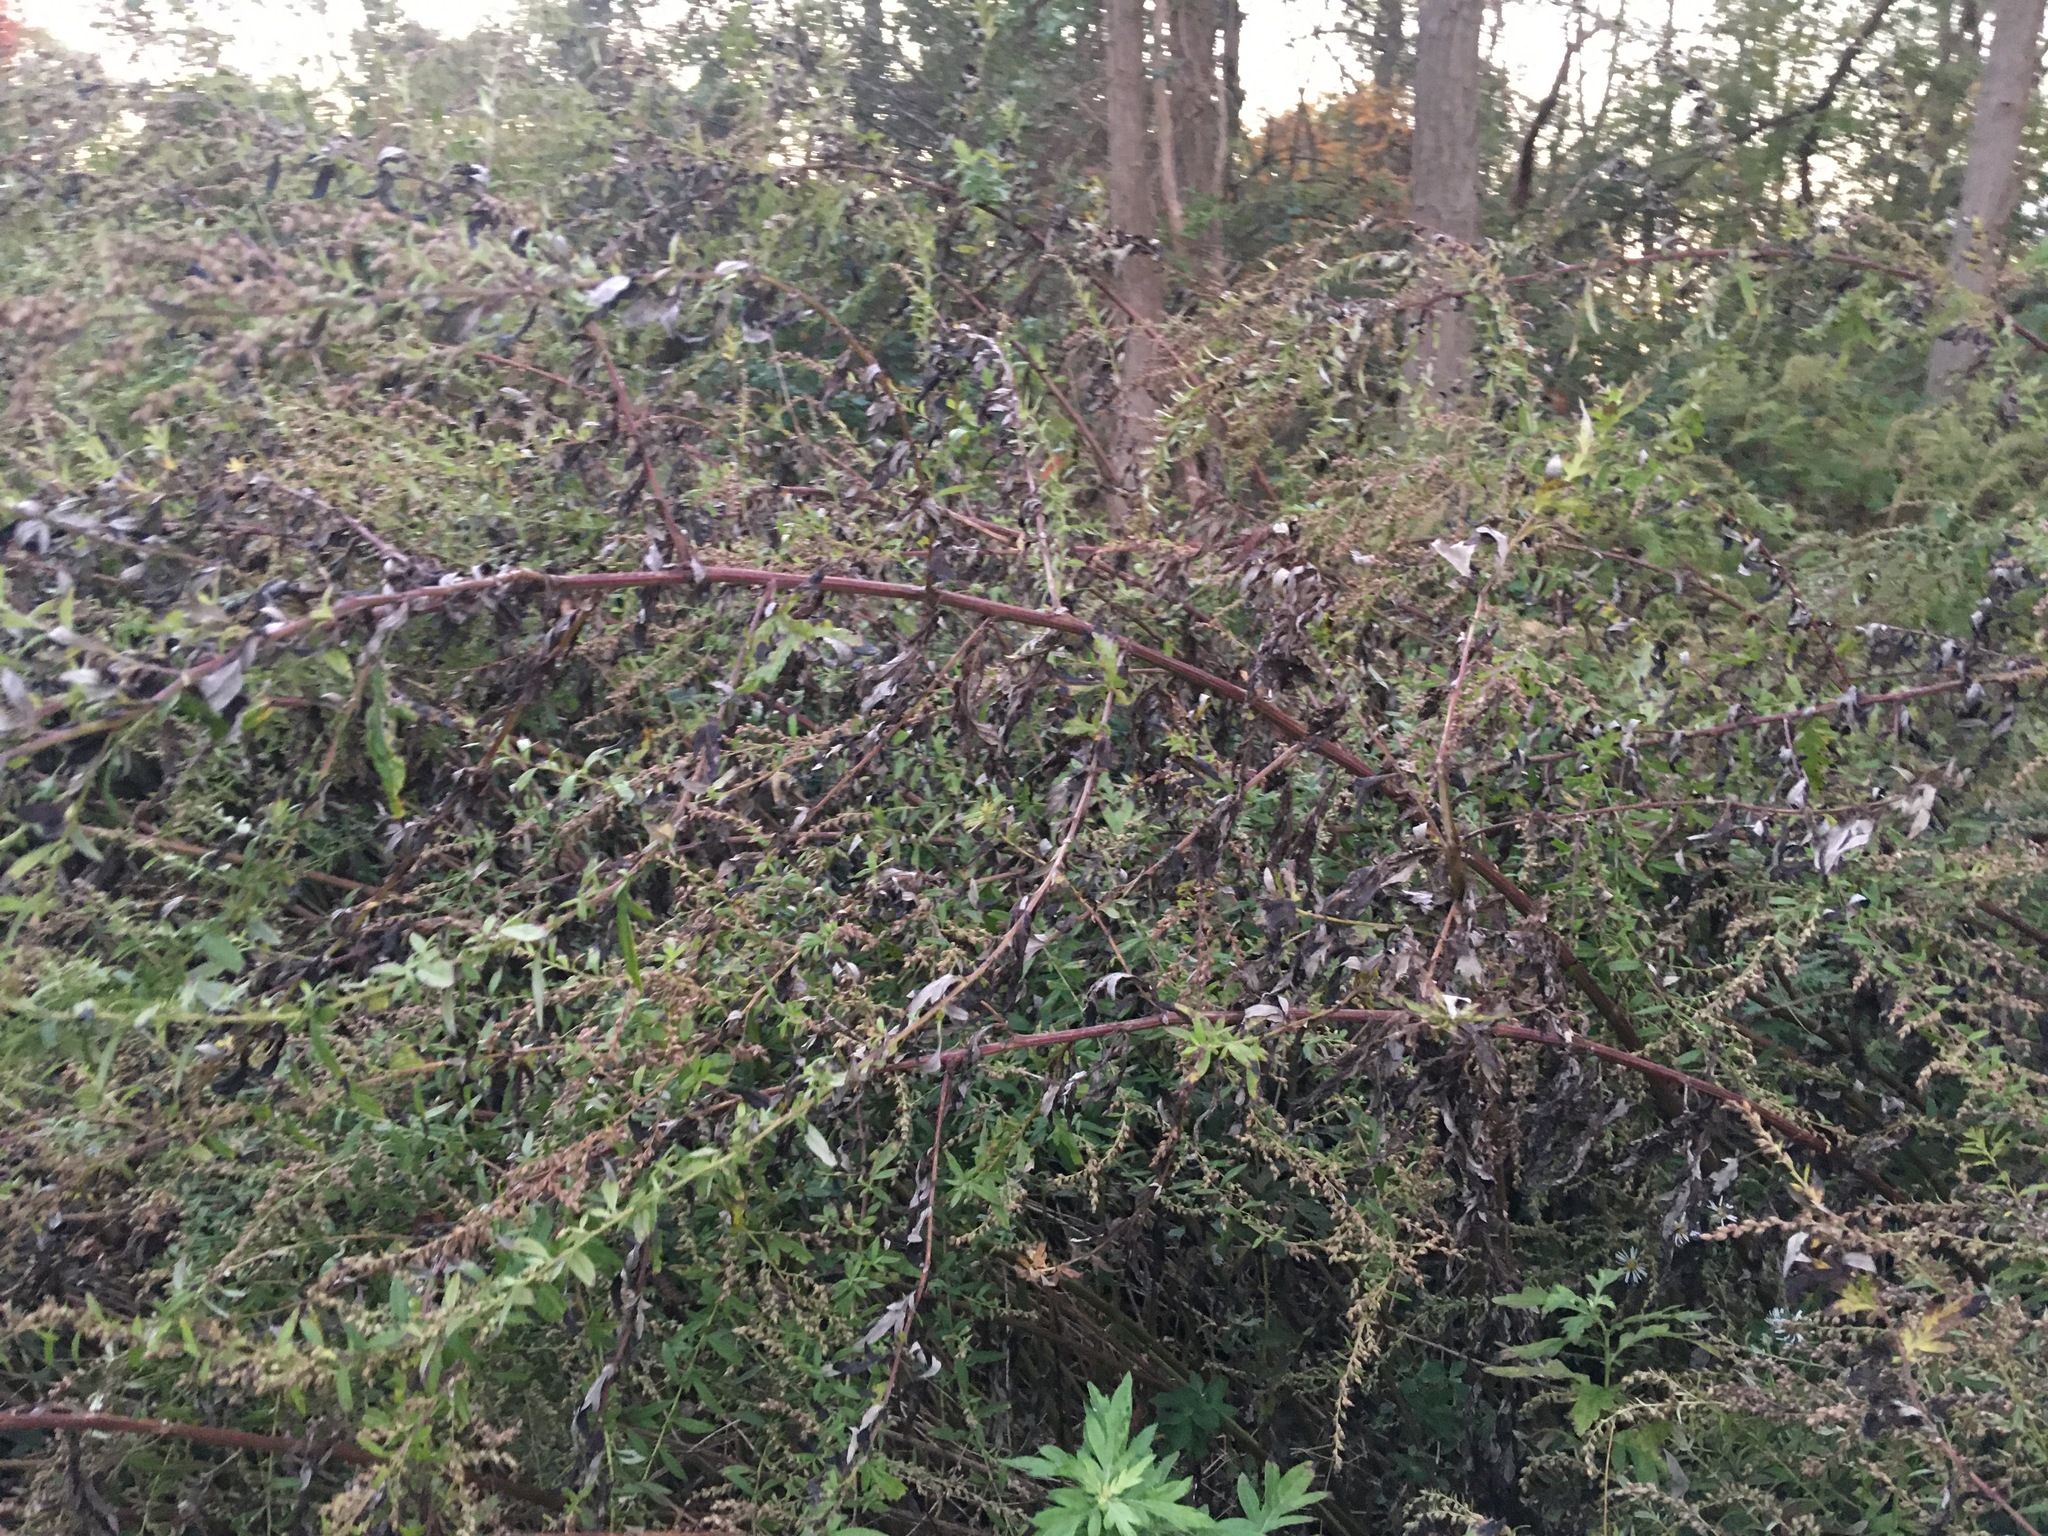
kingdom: Plantae
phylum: Tracheophyta
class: Magnoliopsida
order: Asterales
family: Asteraceae
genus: Artemisia
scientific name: Artemisia vulgaris
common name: Mugwort
